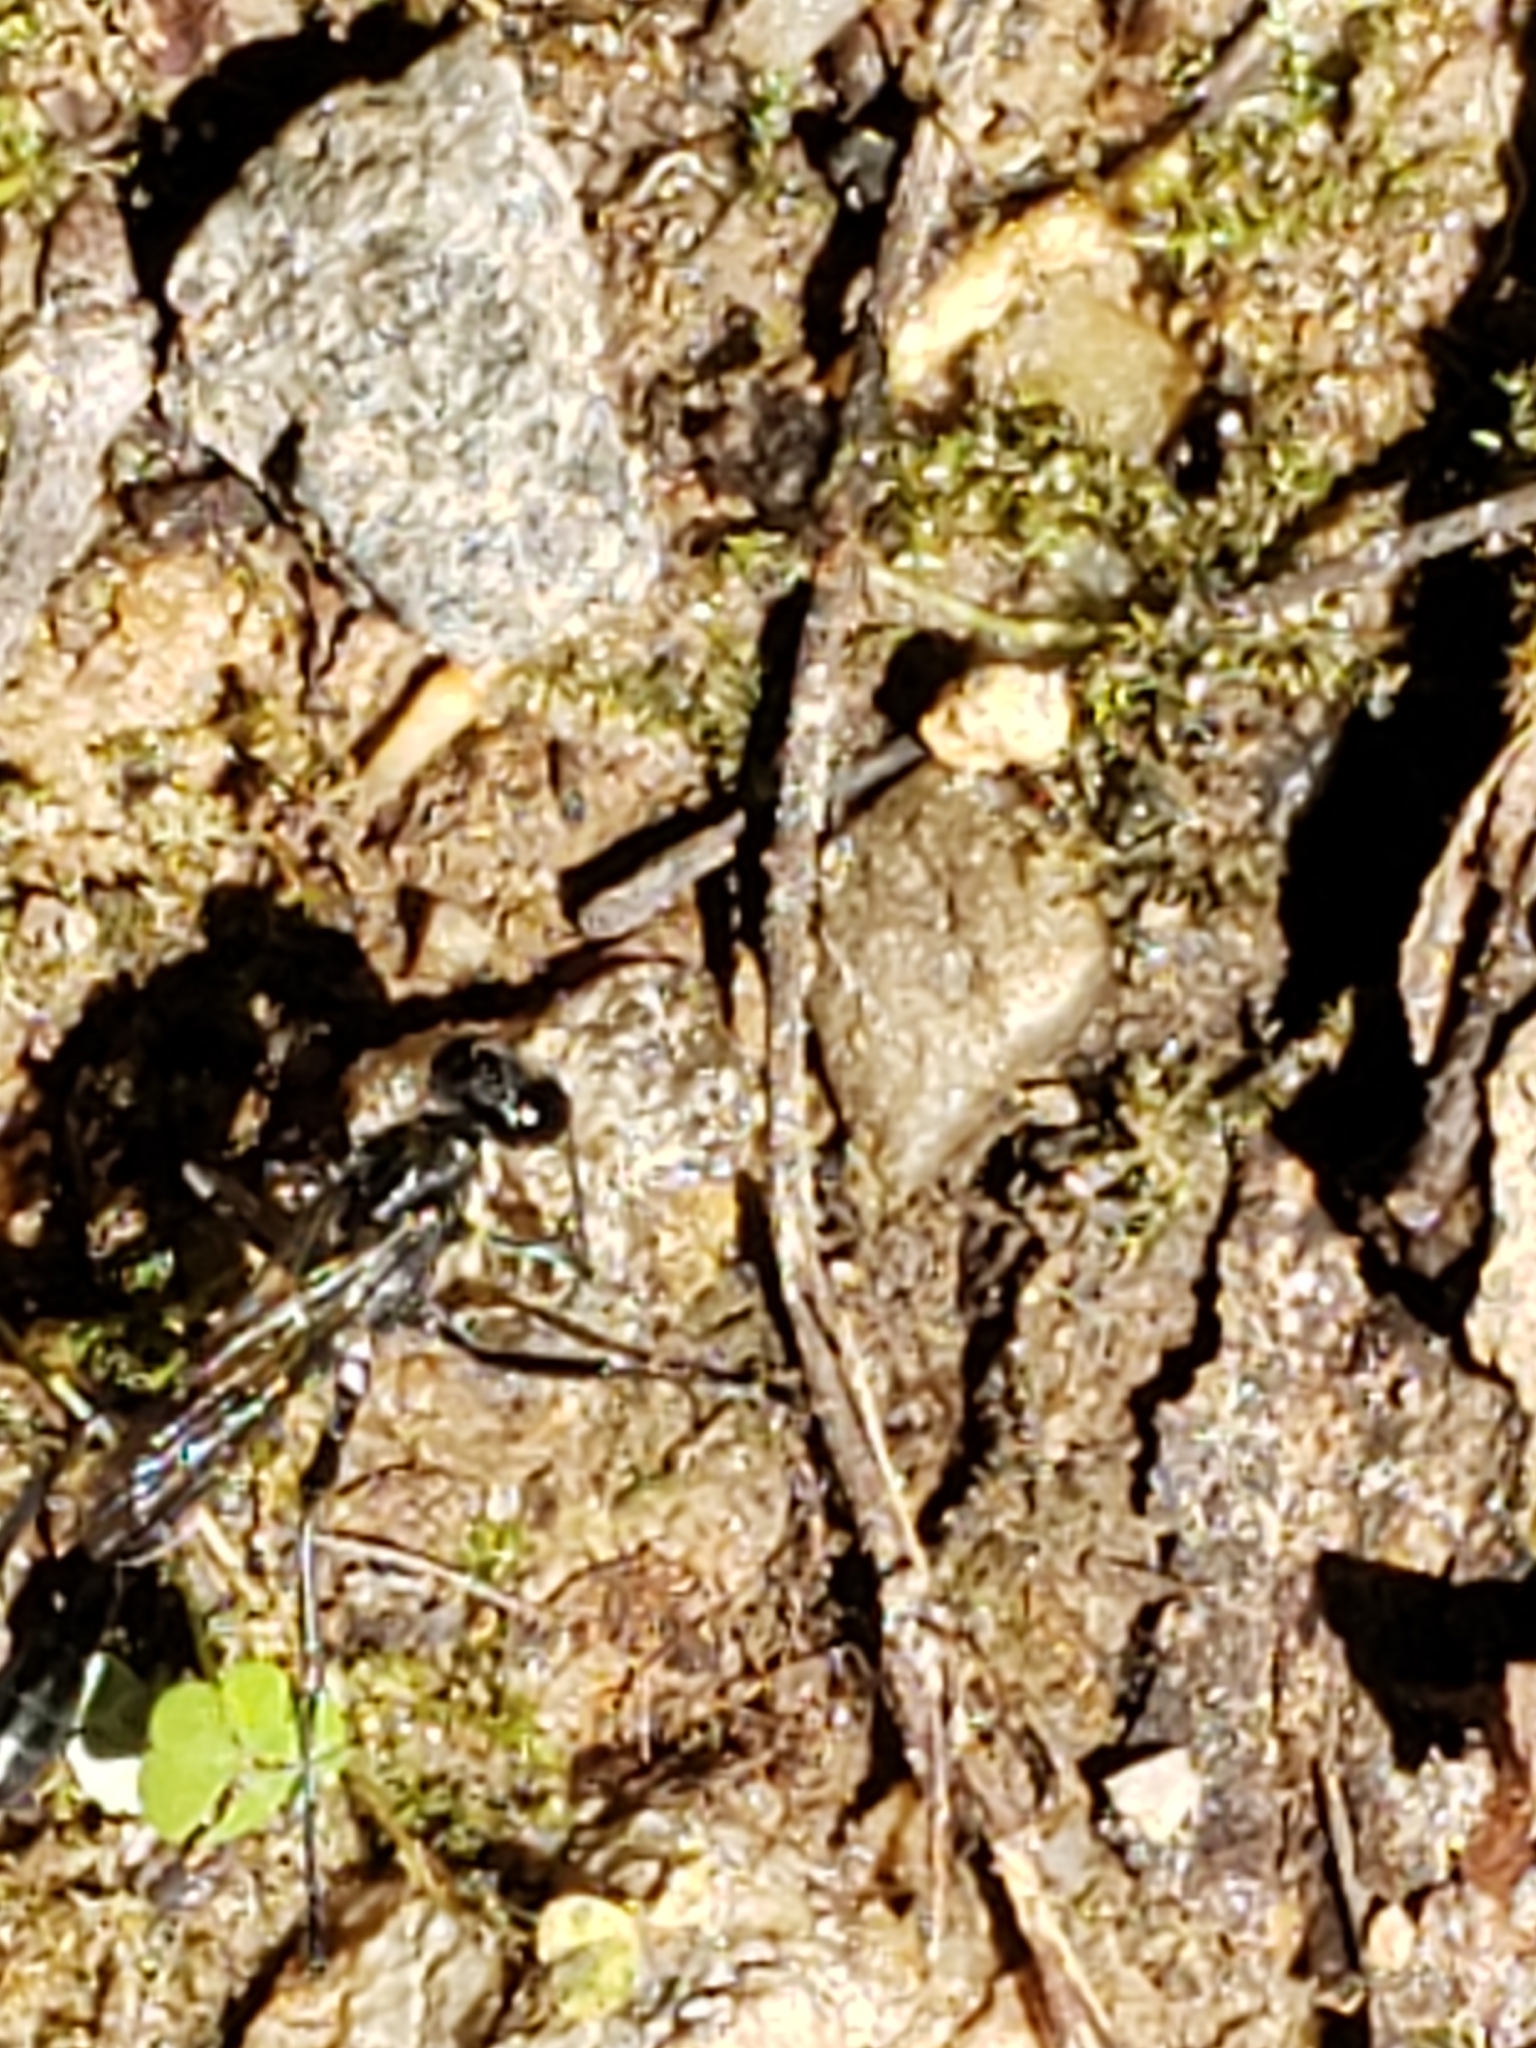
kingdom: Animalia
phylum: Arthropoda
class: Insecta
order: Hymenoptera
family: Sphecidae
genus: Eremnophila
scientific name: Eremnophila aureonotata
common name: Gold-marked thread-waisted wasp
